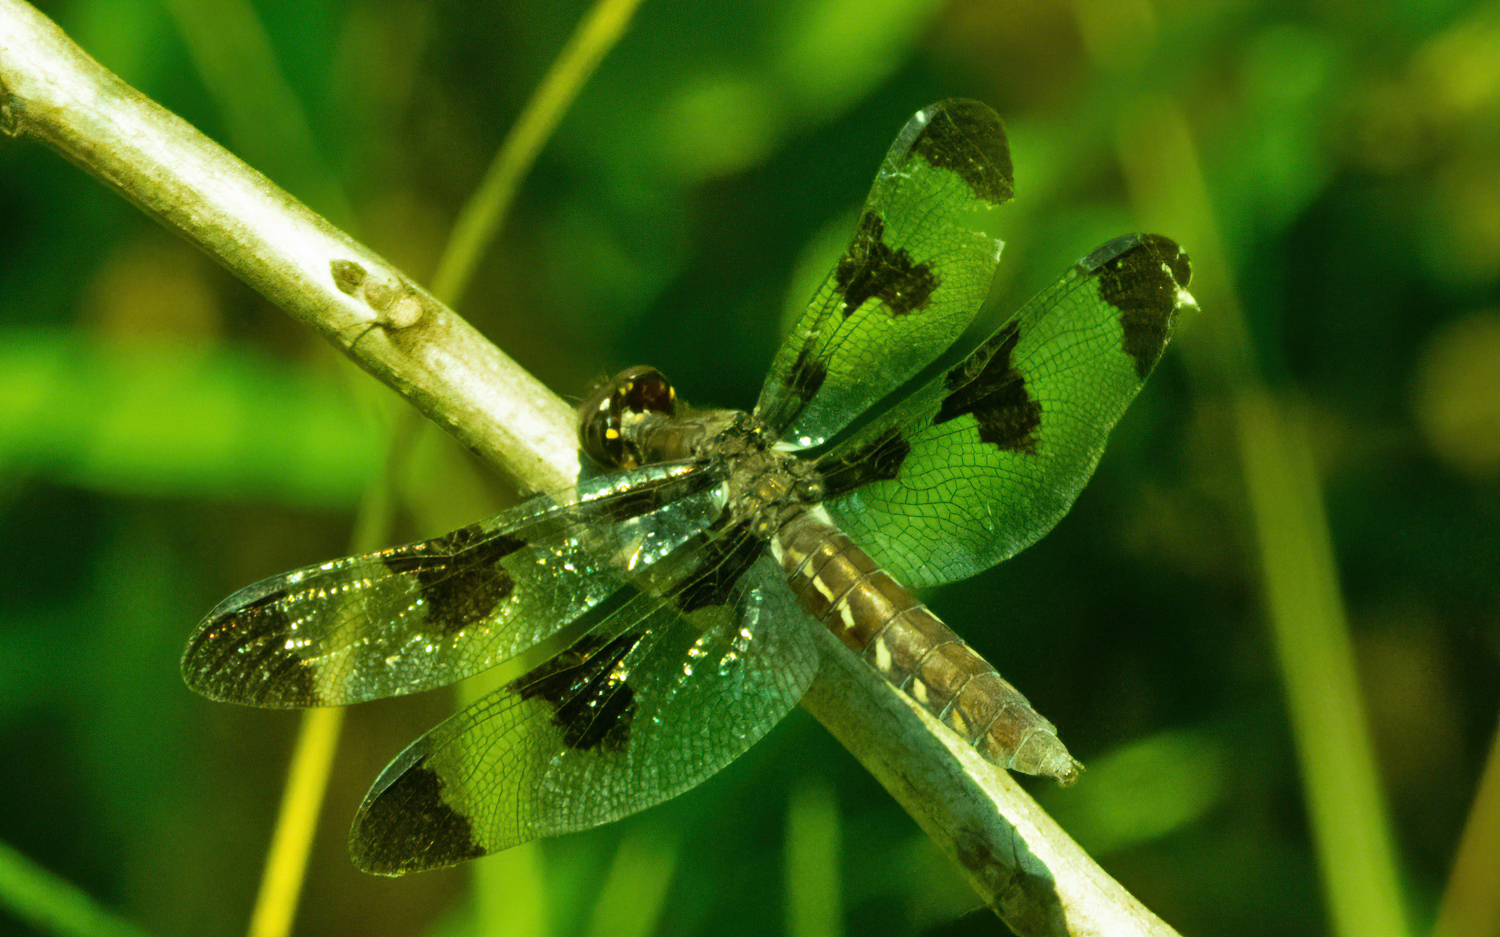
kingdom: Animalia
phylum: Arthropoda
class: Insecta
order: Odonata
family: Libellulidae
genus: Plathemis
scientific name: Plathemis lydia
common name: Common whitetail
